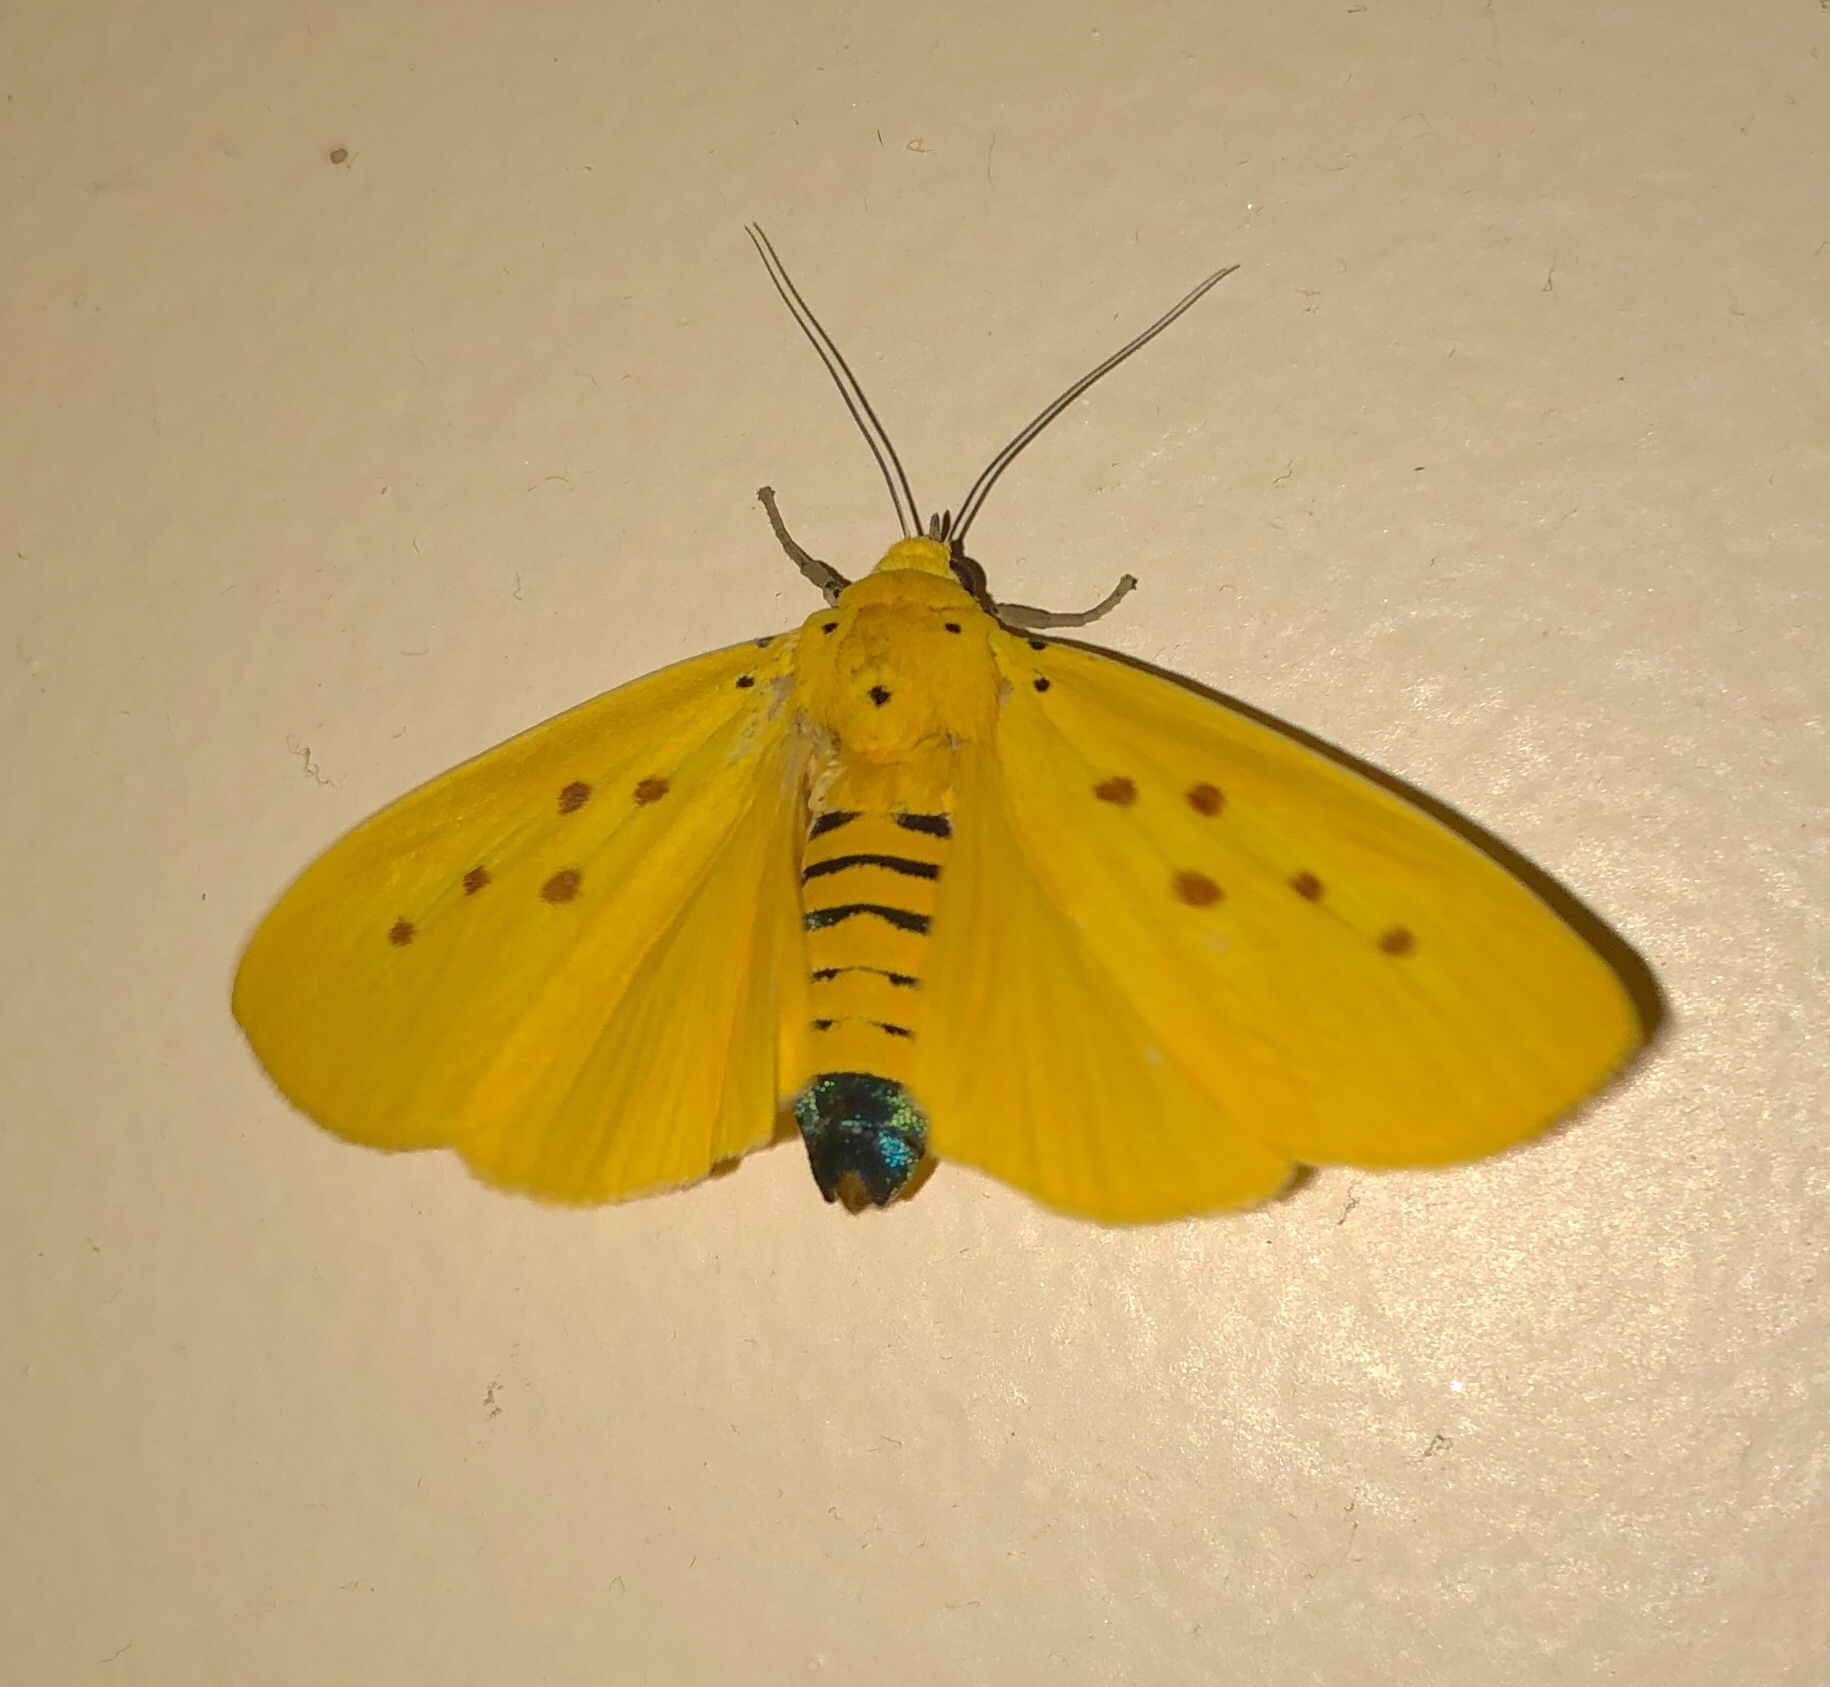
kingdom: Animalia
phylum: Arthropoda
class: Insecta
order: Lepidoptera
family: Noctuidae
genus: Agape
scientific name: Agape chloropyga
